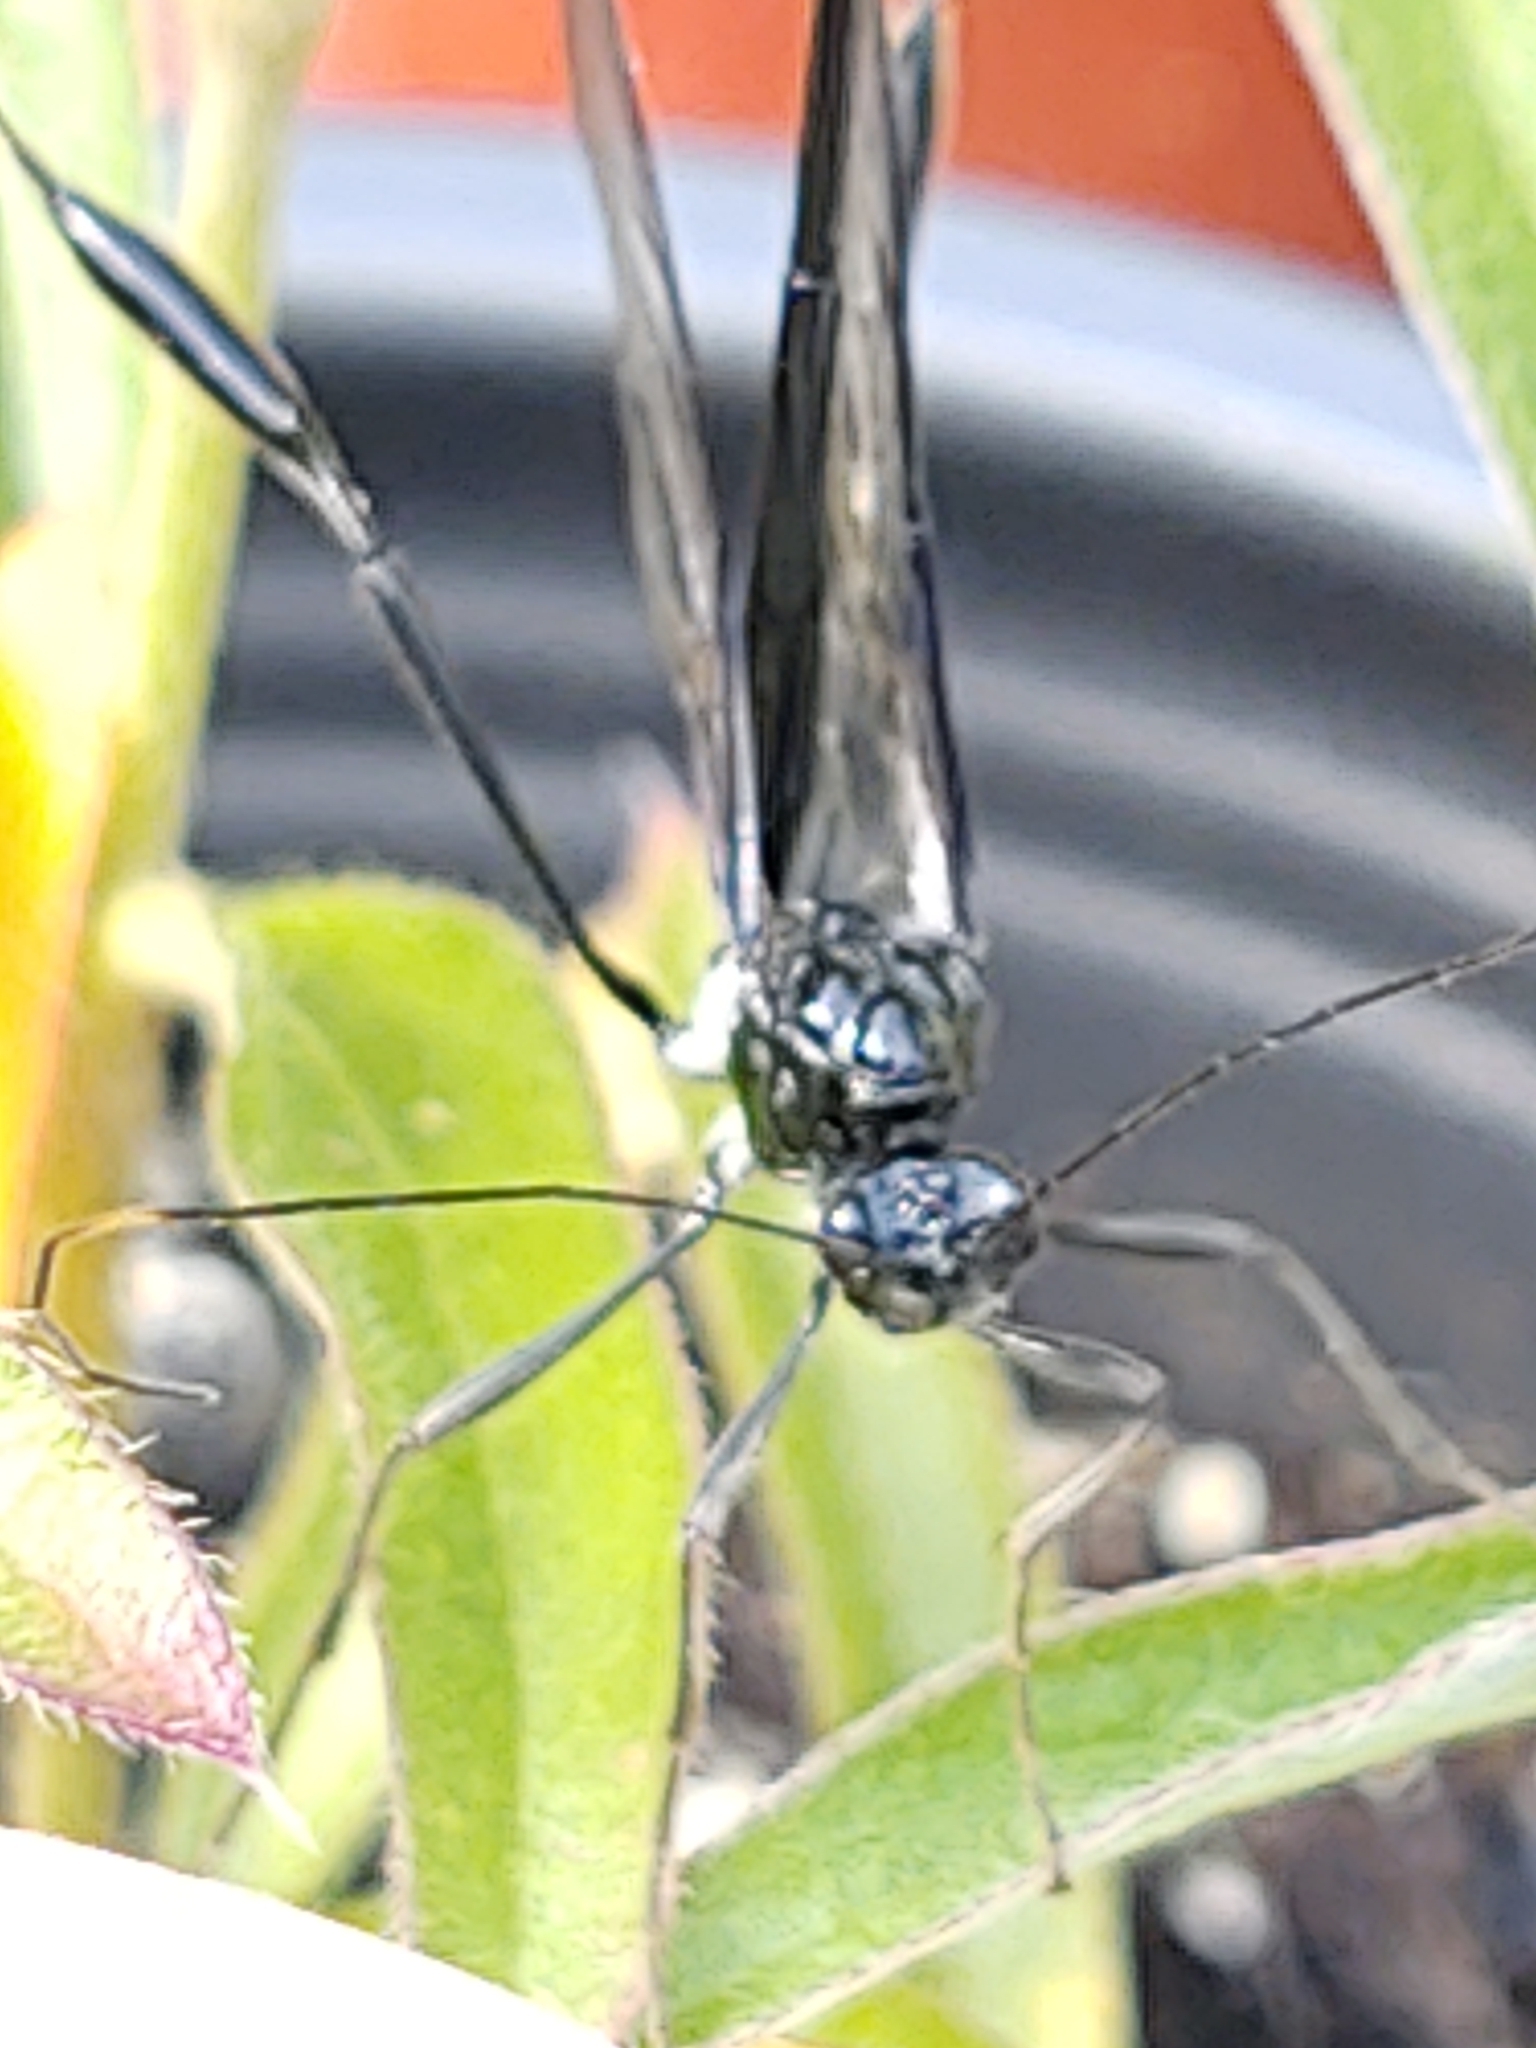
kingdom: Animalia
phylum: Arthropoda
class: Insecta
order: Hymenoptera
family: Pelecinidae
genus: Pelecinus
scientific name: Pelecinus polyturator
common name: American pelecinid wasp
